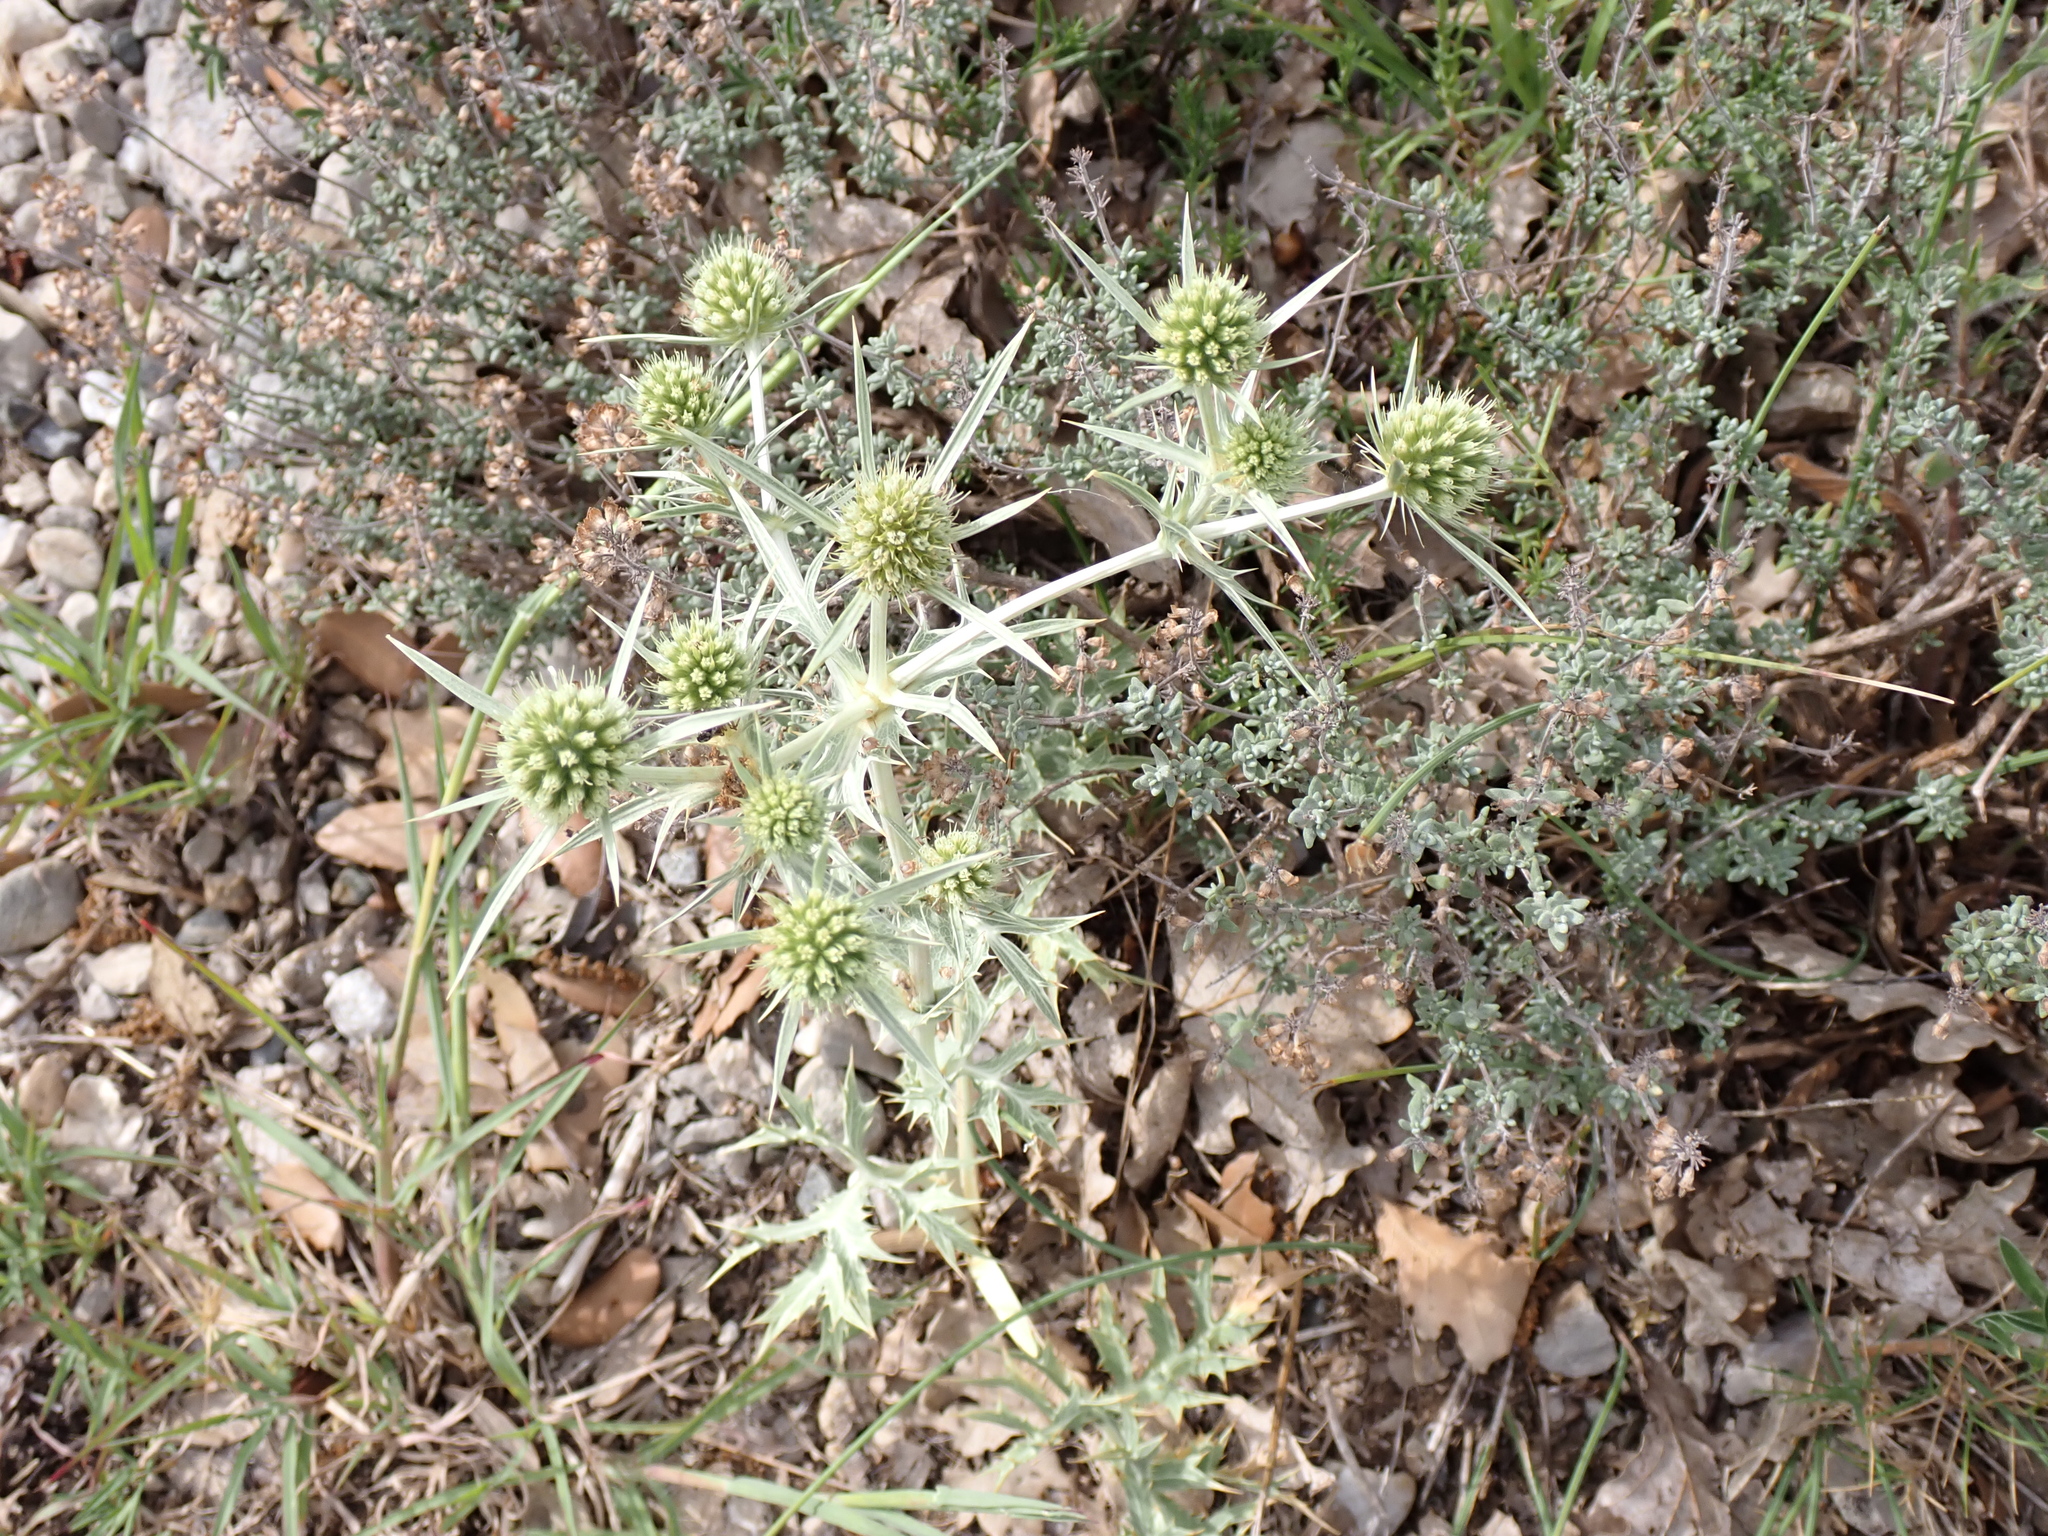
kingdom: Plantae
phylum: Tracheophyta
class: Magnoliopsida
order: Apiales
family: Apiaceae
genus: Eryngium
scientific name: Eryngium campestre
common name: Field eryngo
